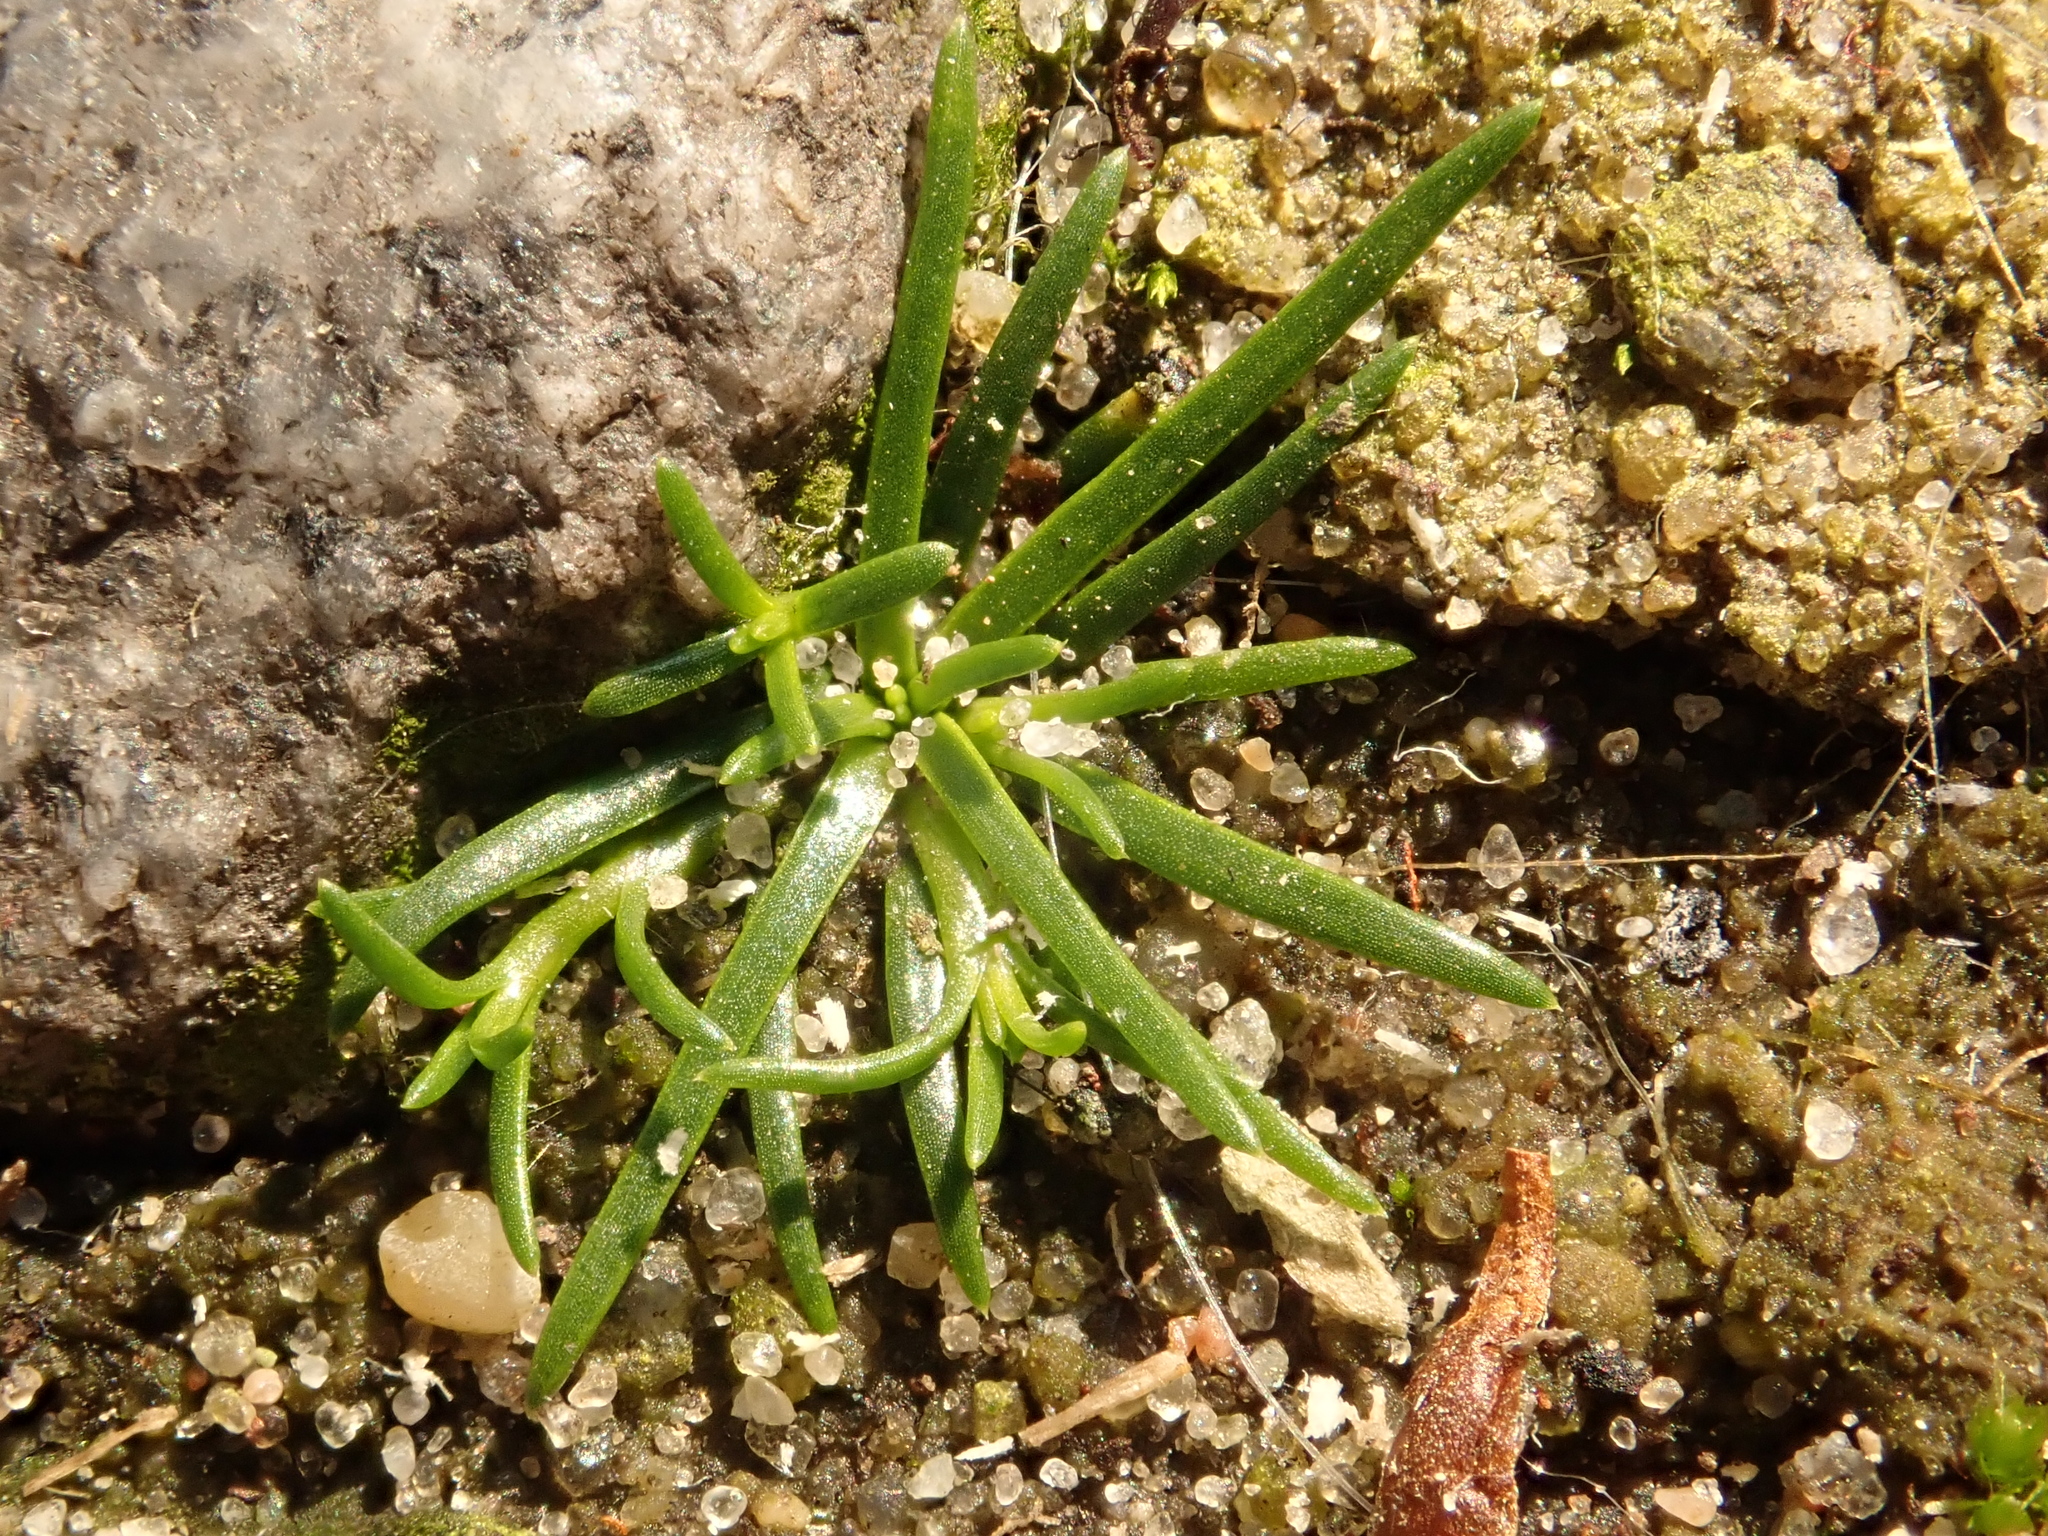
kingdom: Plantae
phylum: Tracheophyta
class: Magnoliopsida
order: Caryophyllales
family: Caryophyllaceae
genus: Sagina
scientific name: Sagina procumbens
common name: Procumbent pearlwort
